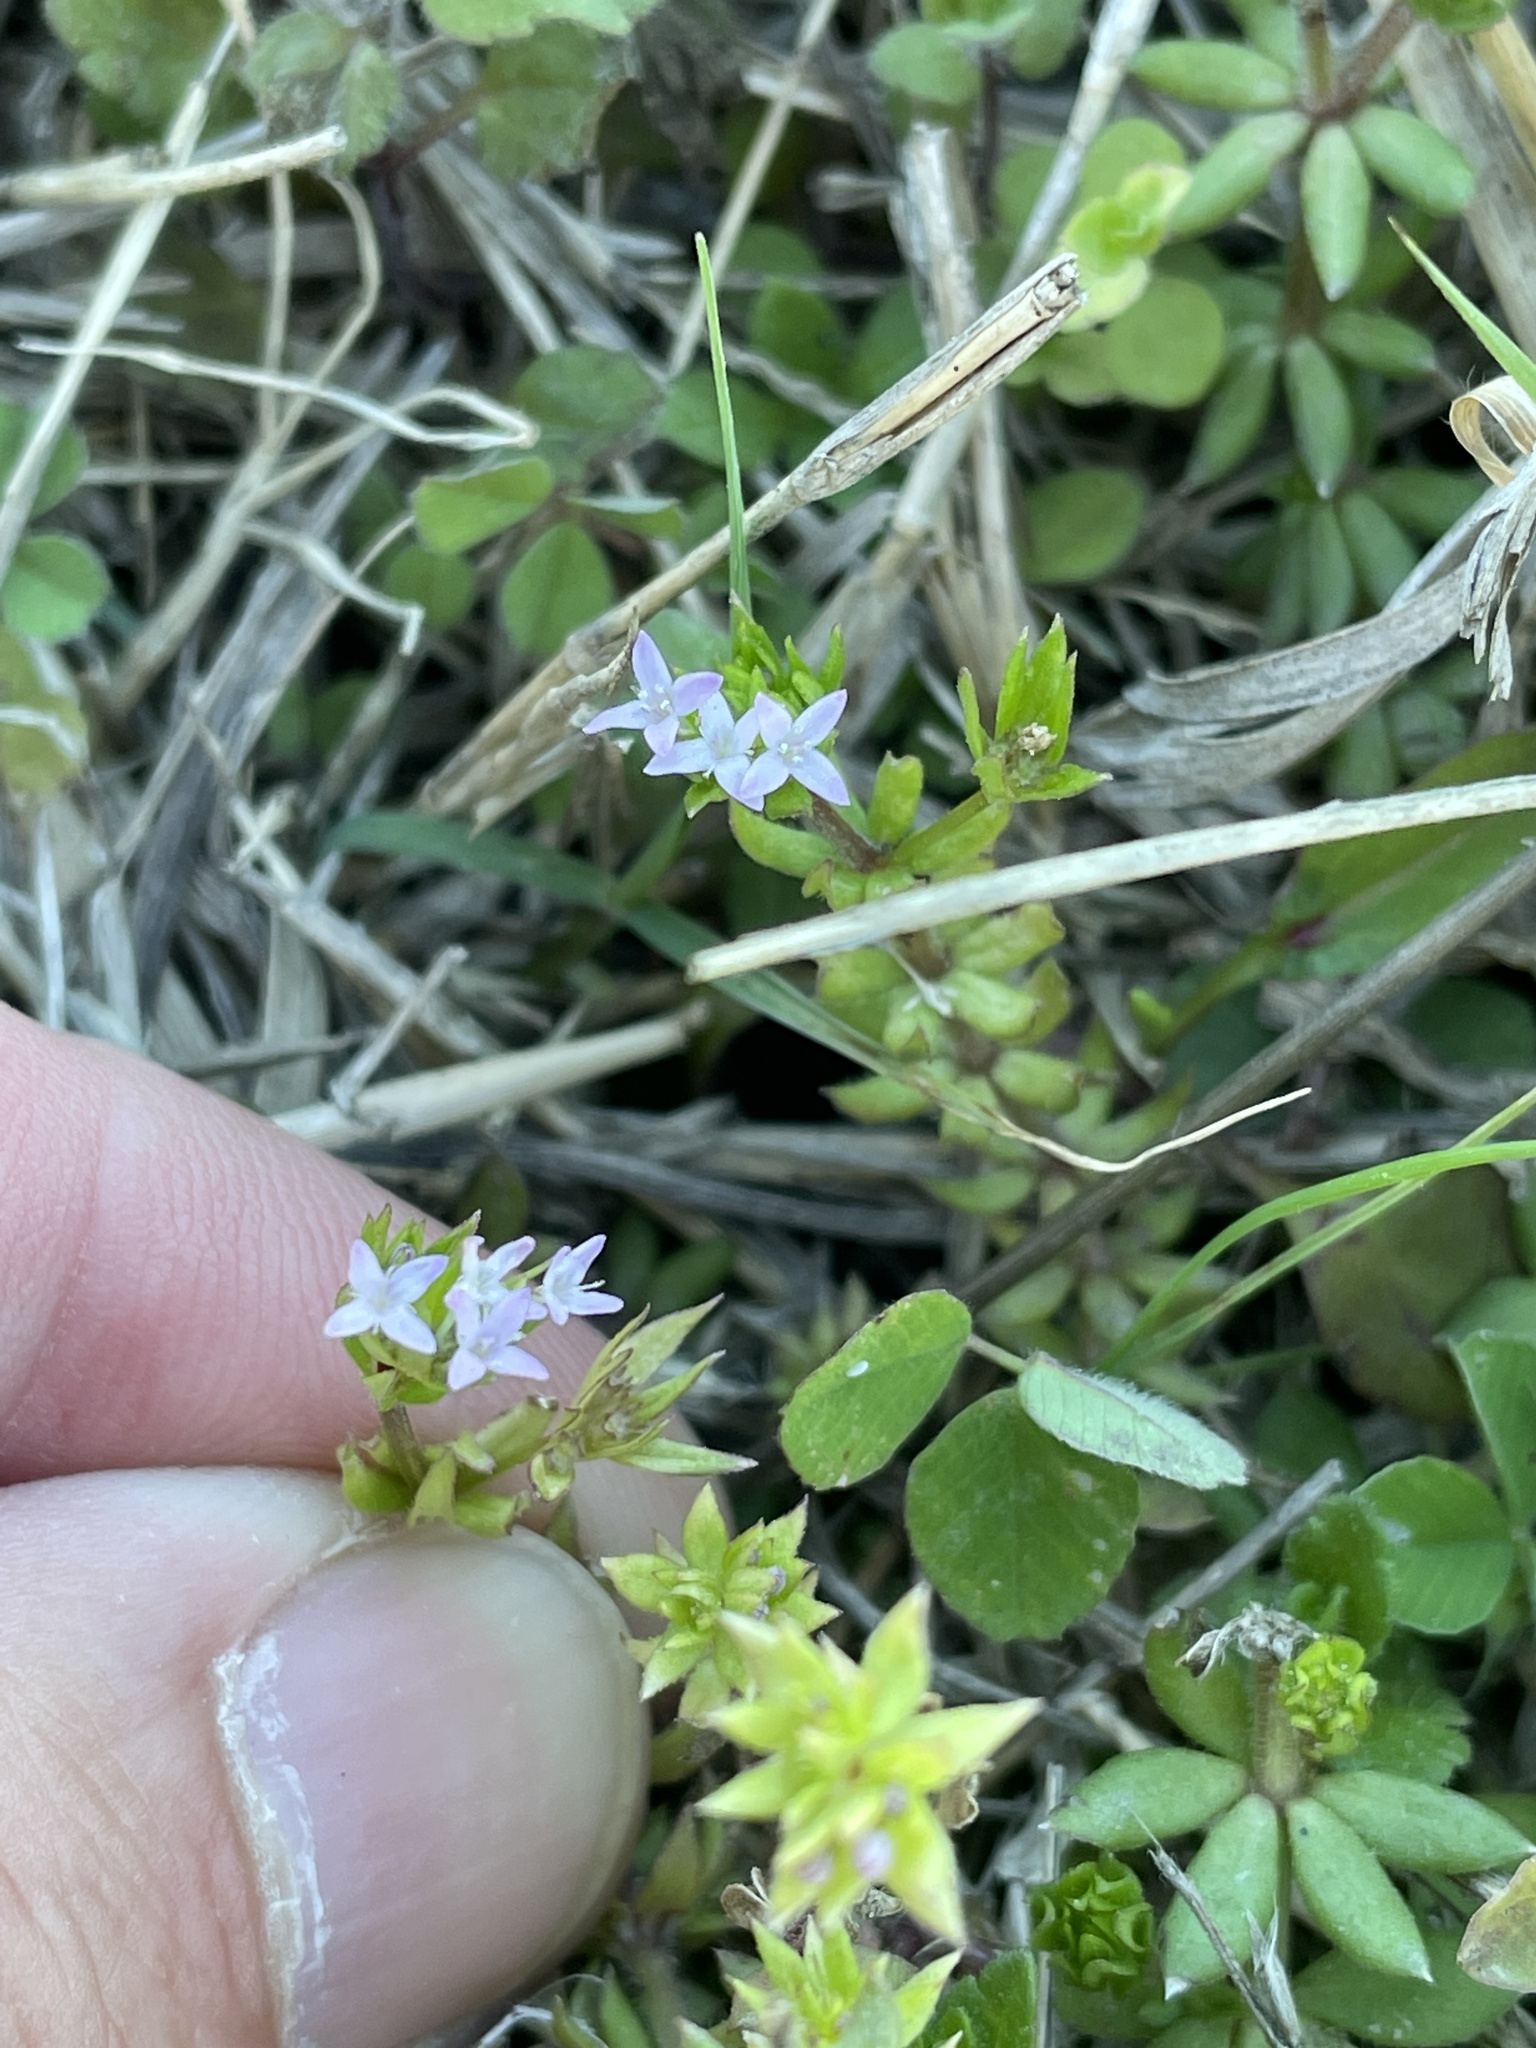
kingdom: Plantae
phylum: Tracheophyta
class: Magnoliopsida
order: Gentianales
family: Rubiaceae
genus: Sherardia
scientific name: Sherardia arvensis
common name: Field madder
